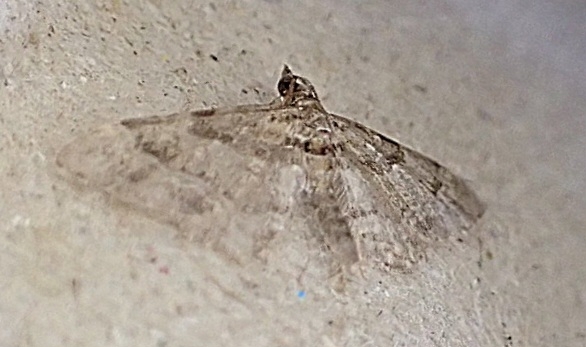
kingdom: Animalia
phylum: Arthropoda
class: Insecta
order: Lepidoptera
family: Geometridae
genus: Gymnoscelis
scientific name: Gymnoscelis rufifasciata
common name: Double-striped pug
